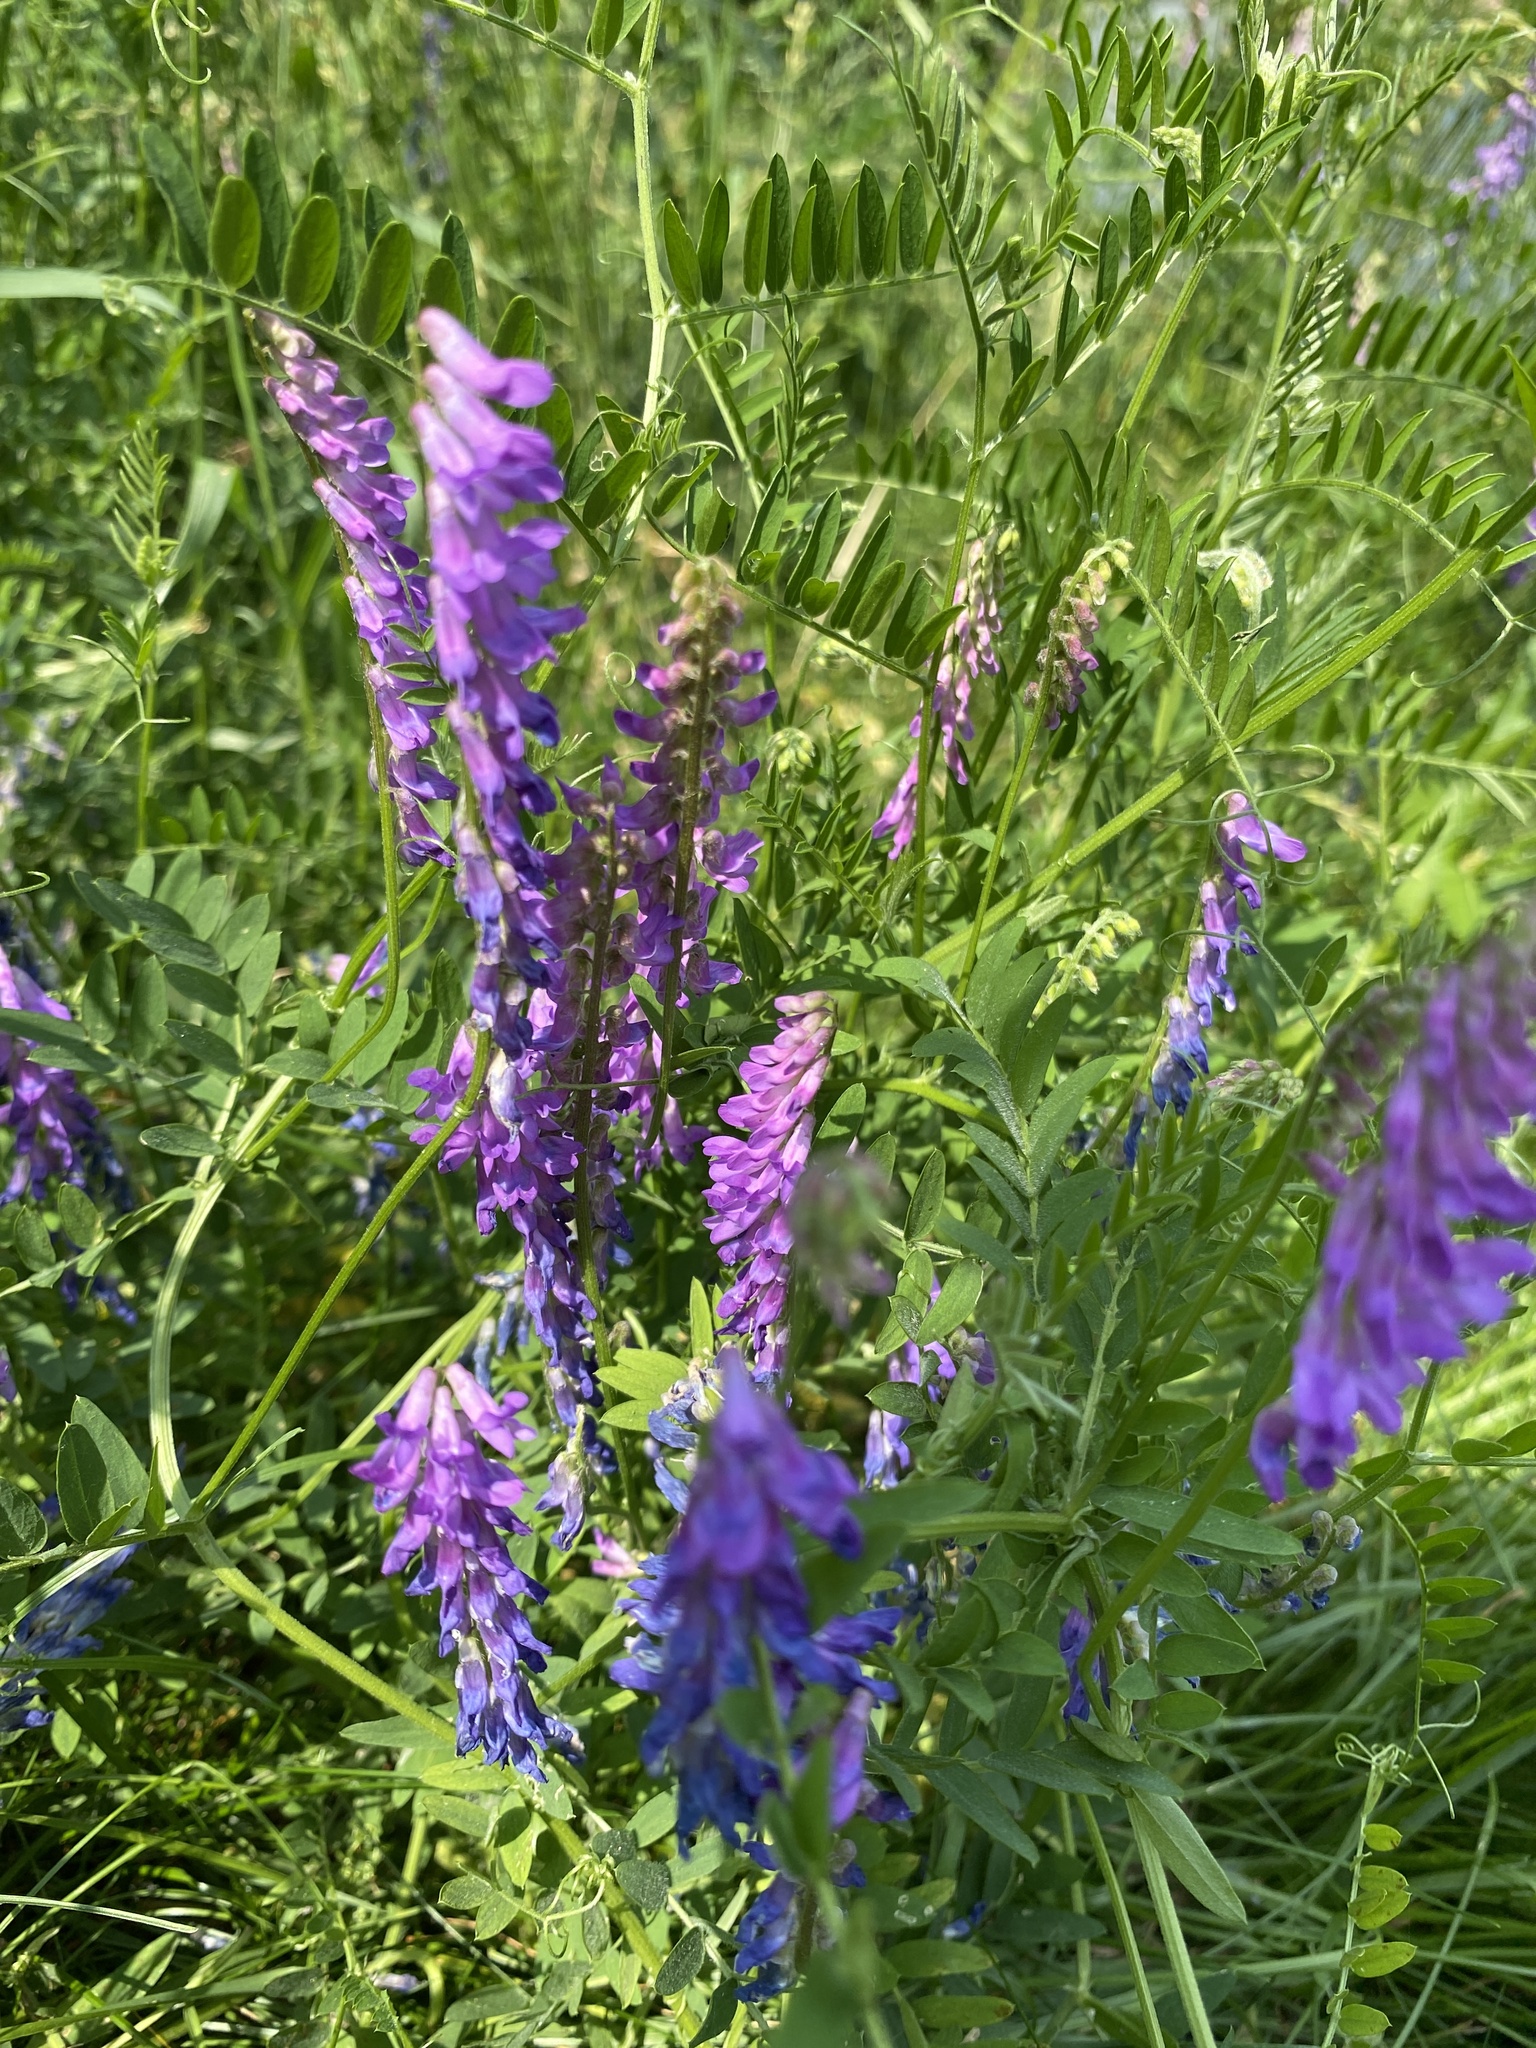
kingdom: Plantae
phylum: Tracheophyta
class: Magnoliopsida
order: Fabales
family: Fabaceae
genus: Vicia
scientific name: Vicia cracca
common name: Bird vetch
